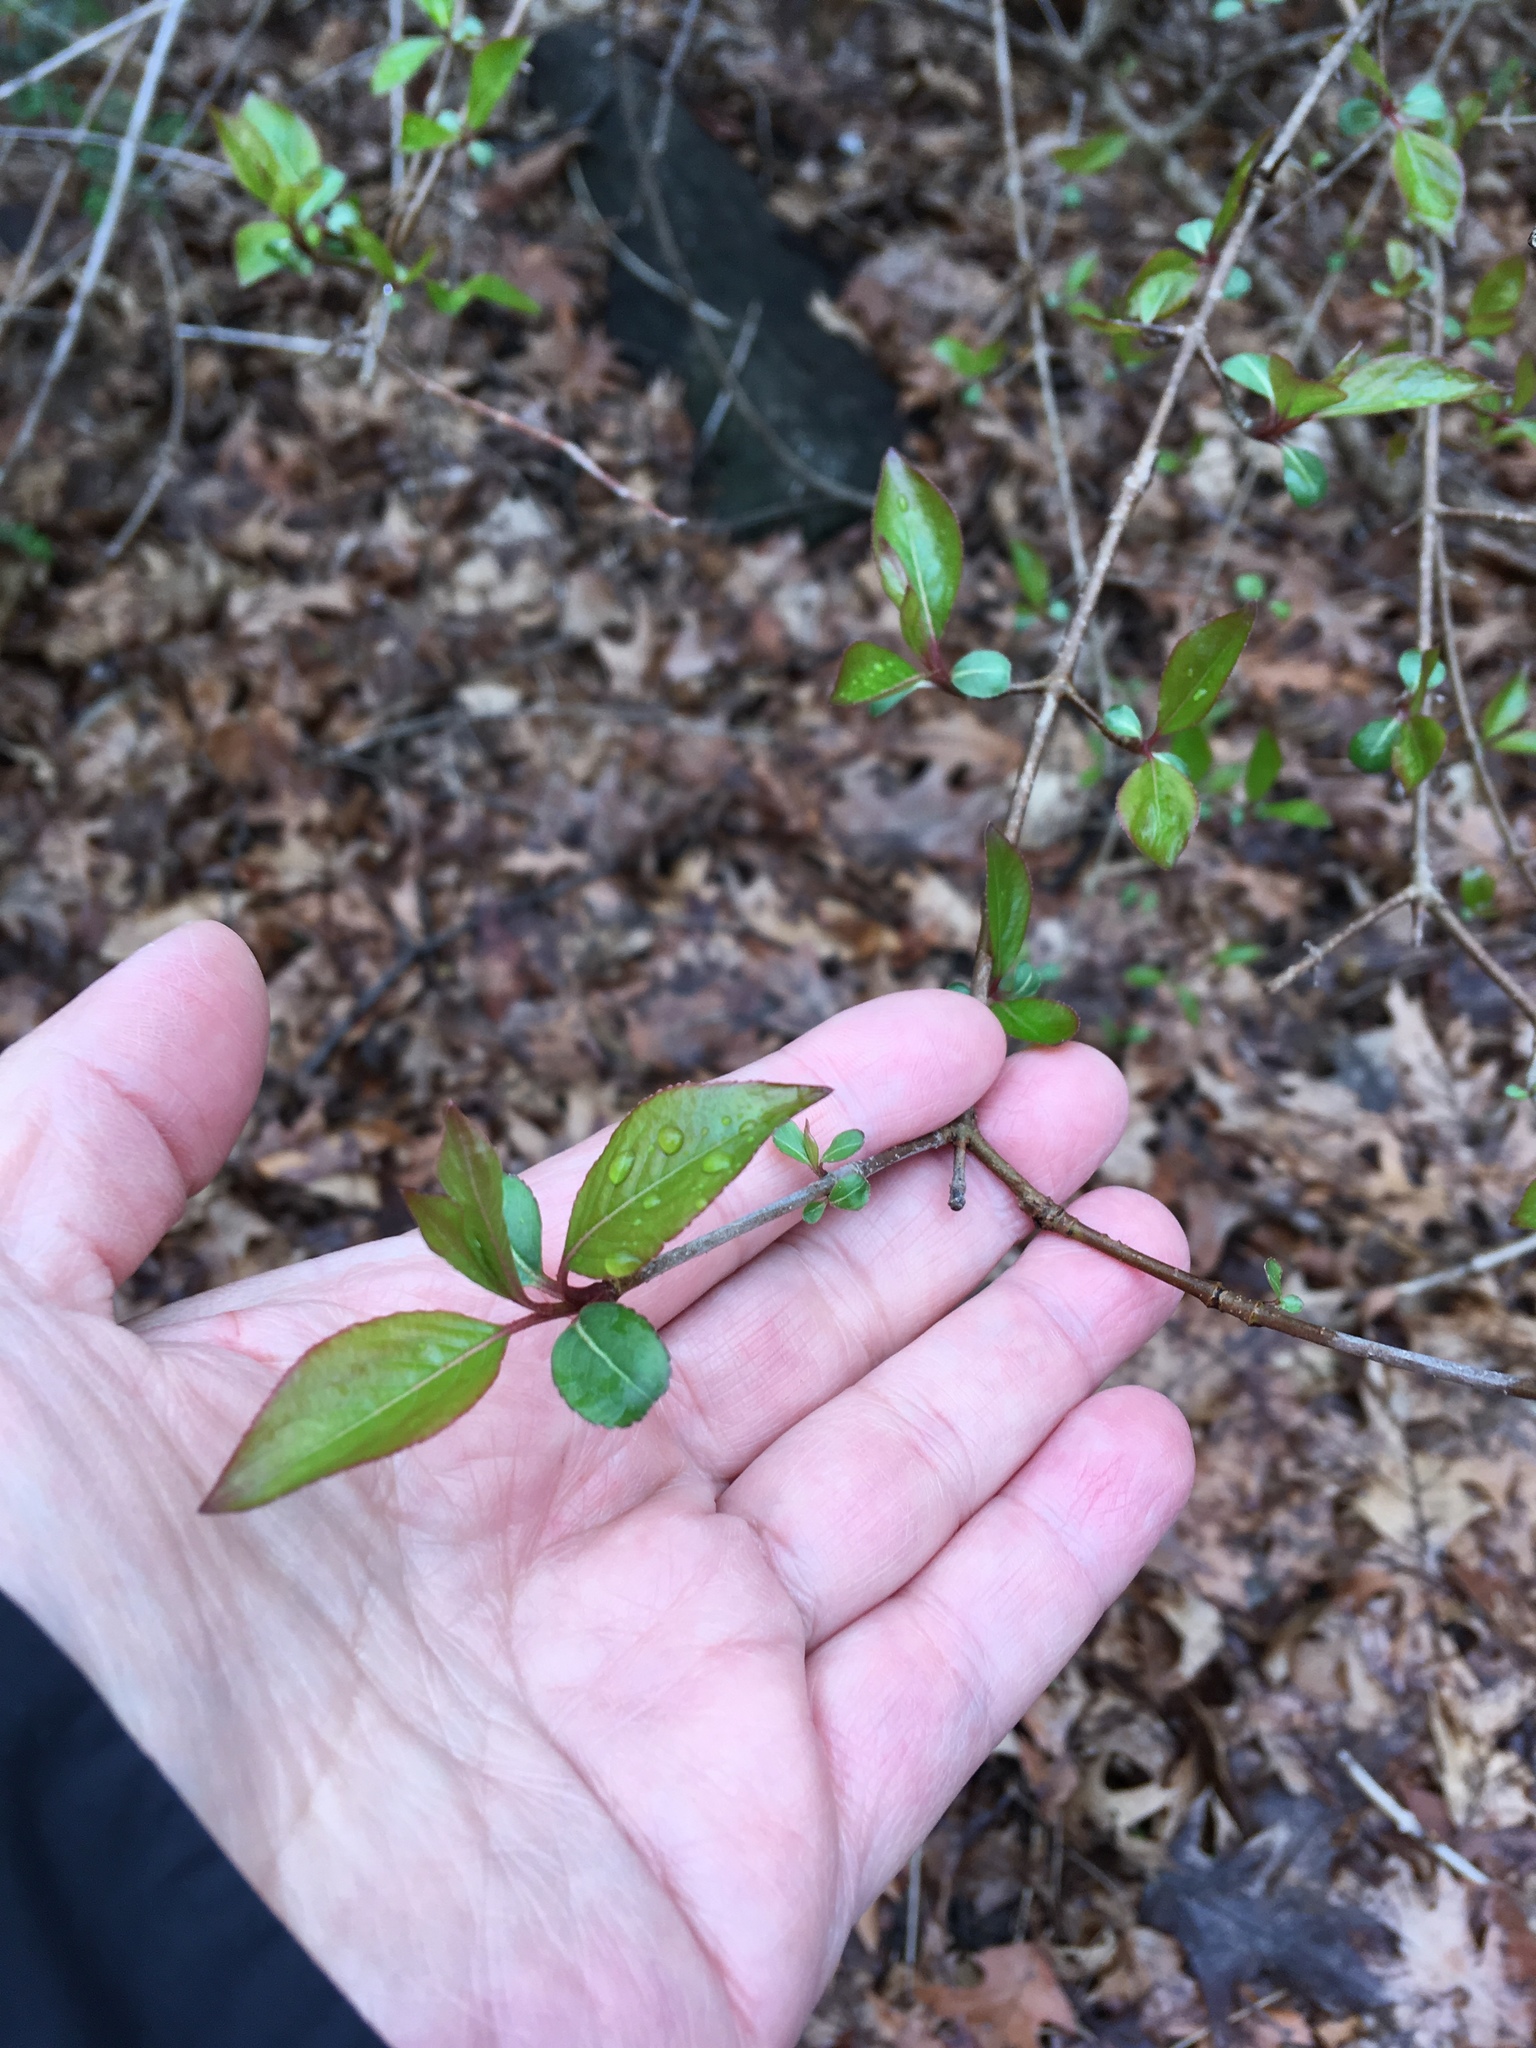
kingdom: Plantae
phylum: Tracheophyta
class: Magnoliopsida
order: Dipsacales
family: Viburnaceae
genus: Viburnum
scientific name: Viburnum prunifolium
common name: Black haw
